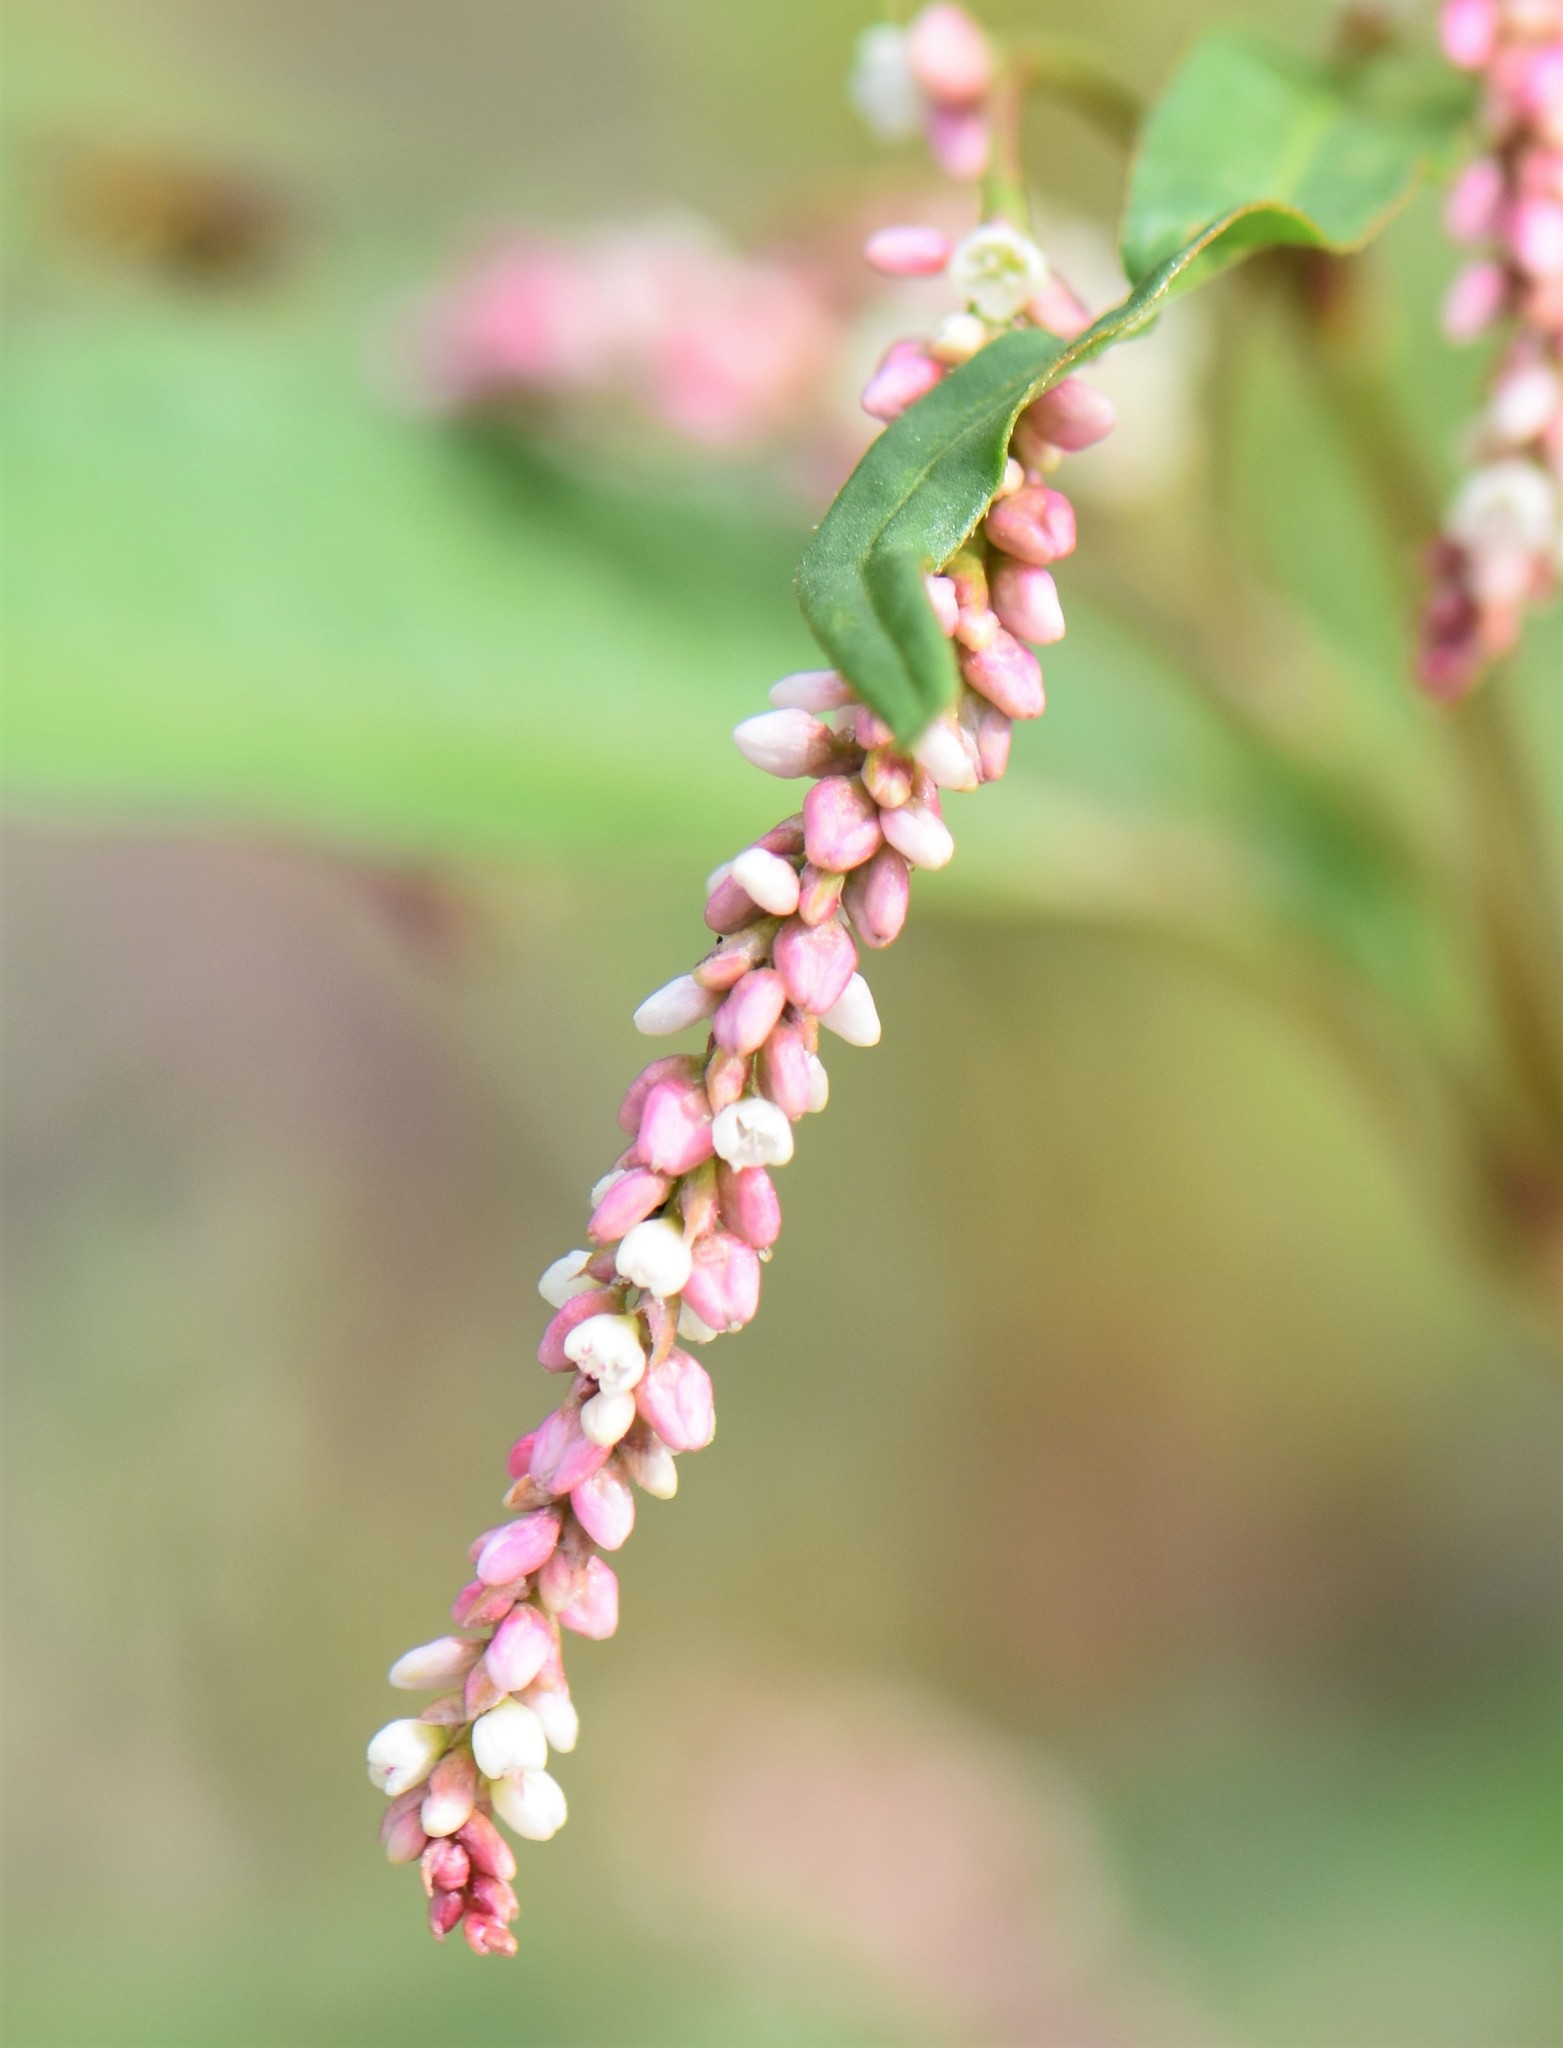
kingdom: Plantae
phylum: Tracheophyta
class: Magnoliopsida
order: Caryophyllales
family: Polygonaceae
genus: Persicaria
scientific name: Persicaria lapathifolia
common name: Curlytop knotweed
